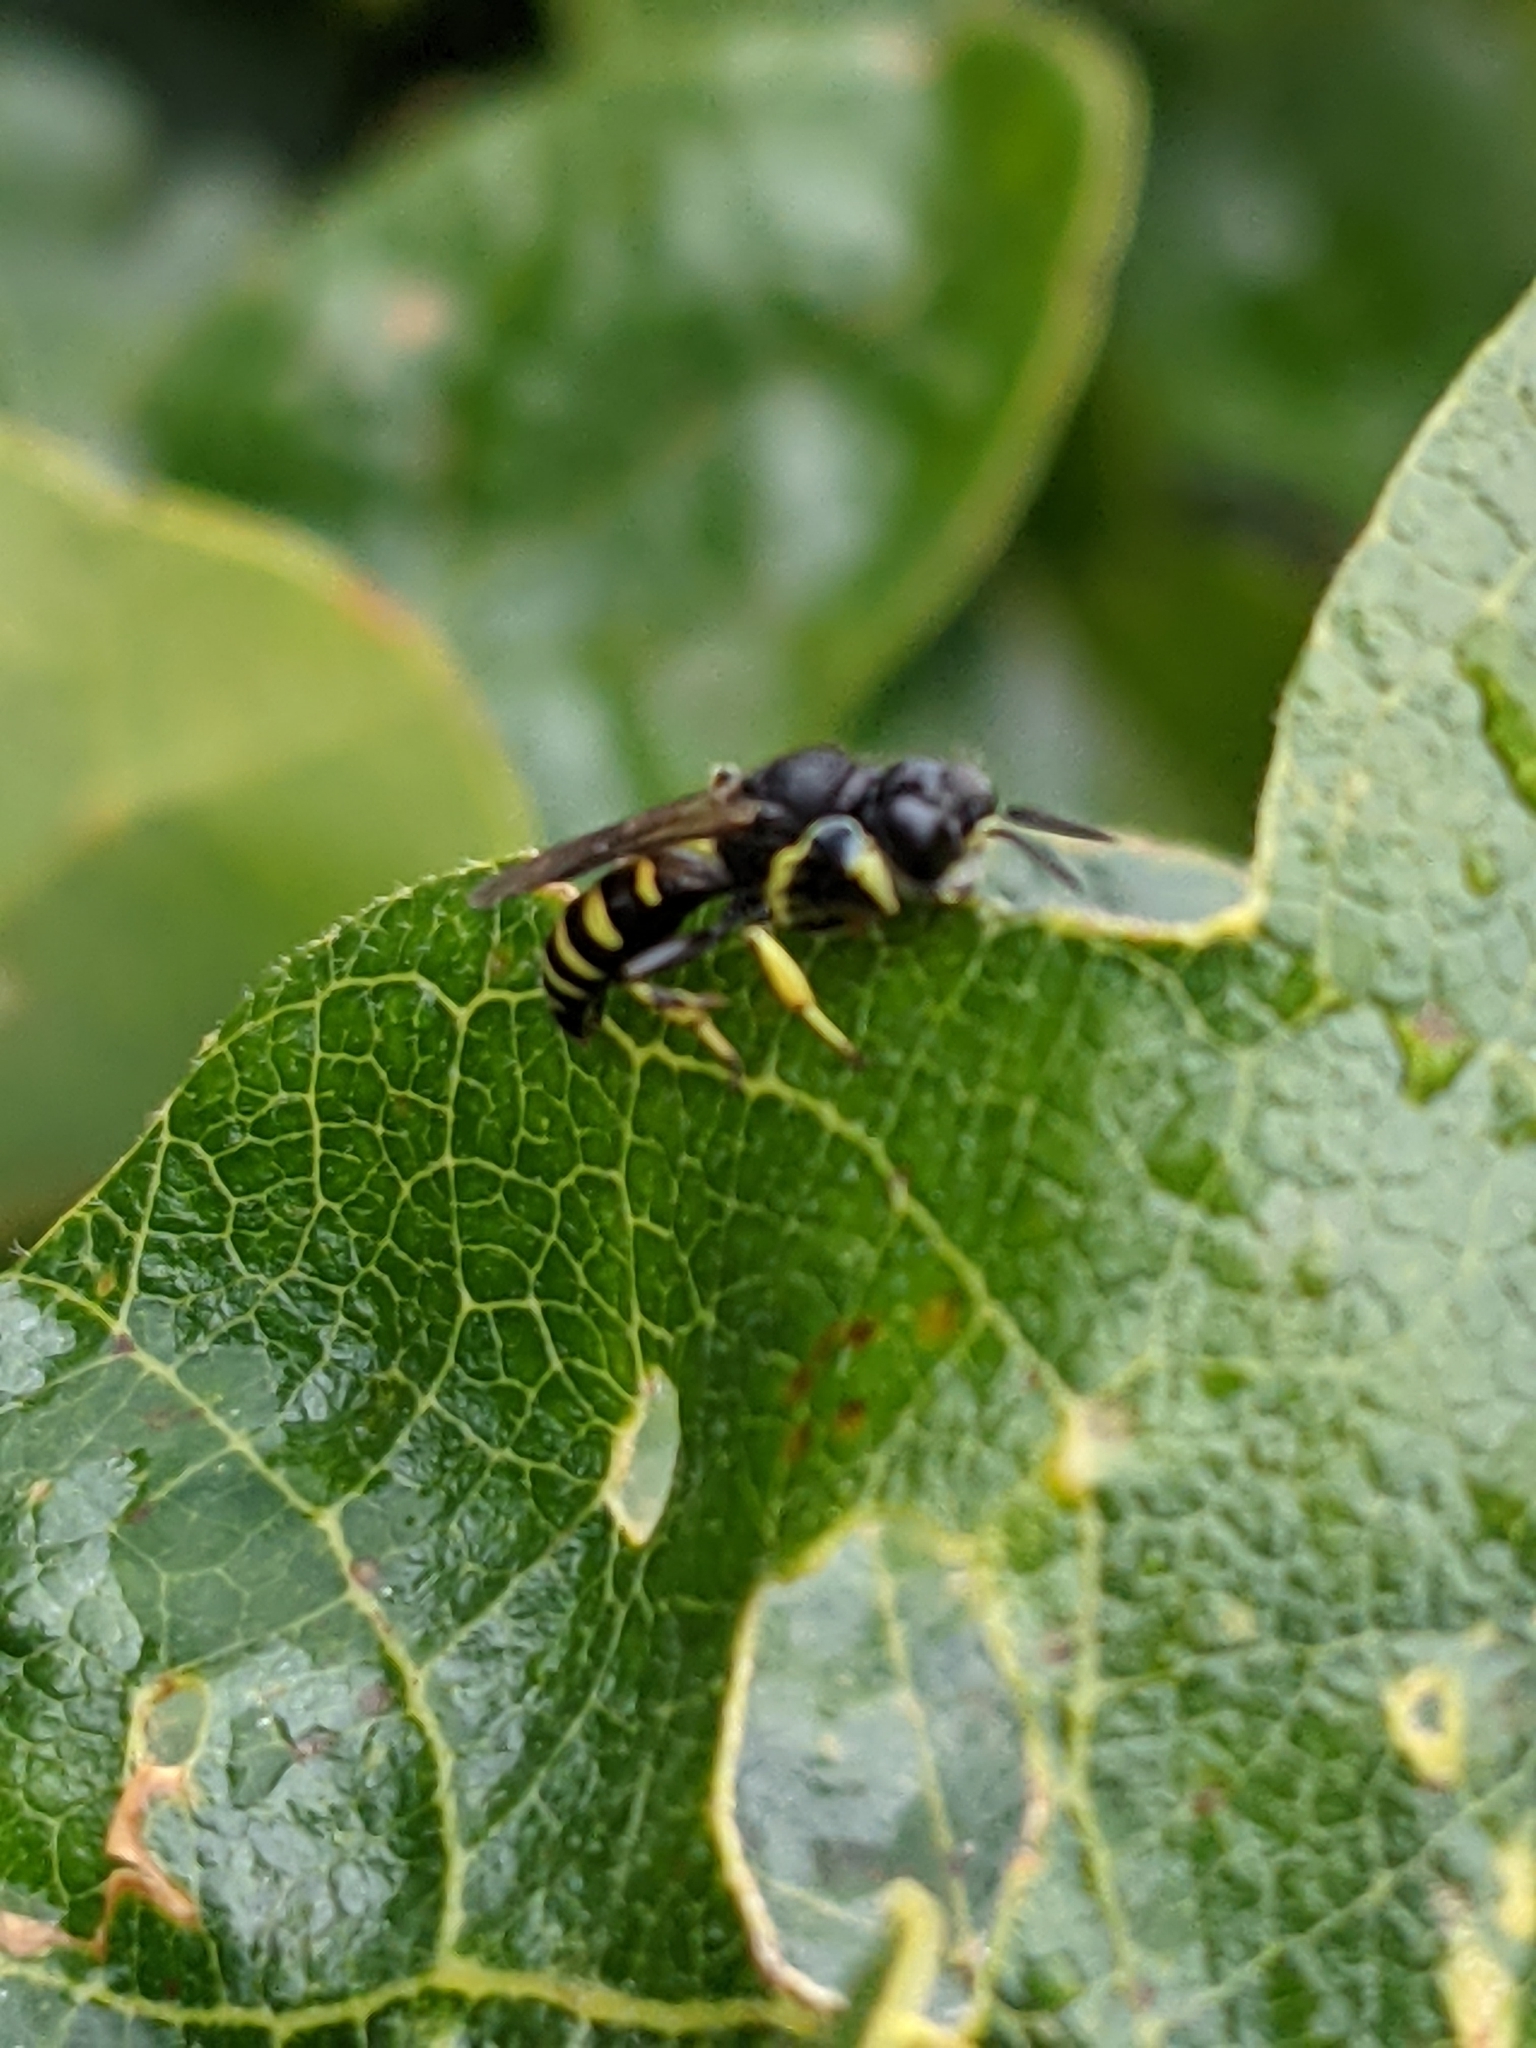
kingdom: Animalia
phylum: Arthropoda
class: Insecta
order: Hymenoptera
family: Crabronidae
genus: Crabro
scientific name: Crabro latipes
